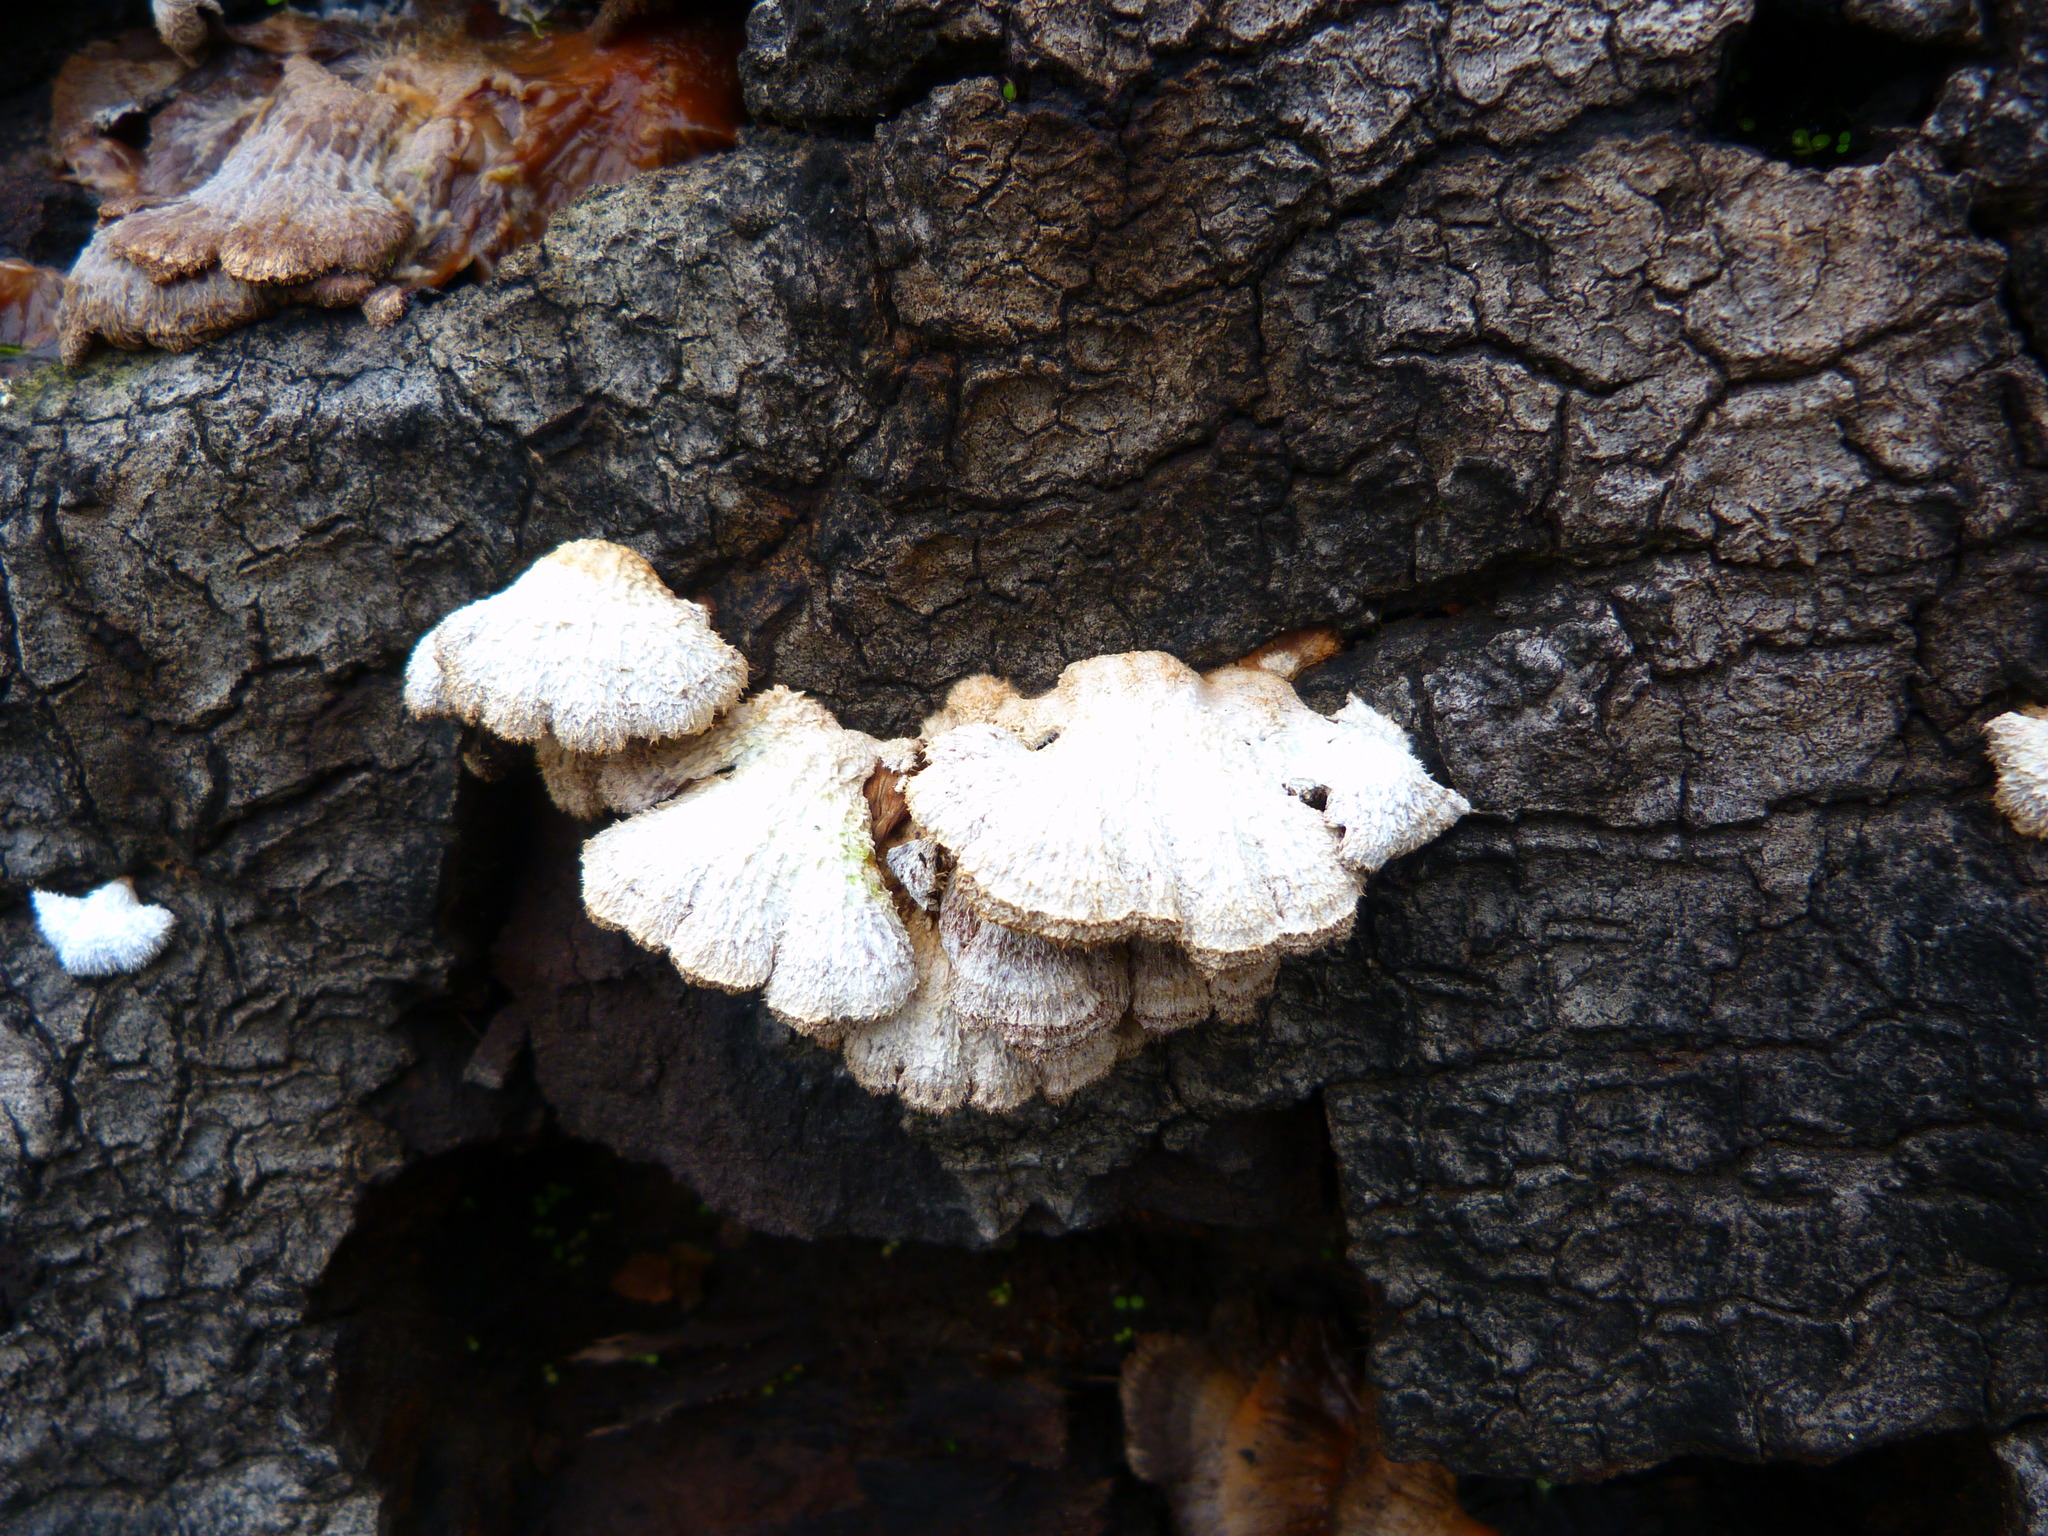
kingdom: Fungi
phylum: Basidiomycota
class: Agaricomycetes
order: Agaricales
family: Schizophyllaceae
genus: Schizophyllum
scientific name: Schizophyllum commune
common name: Common porecrust
